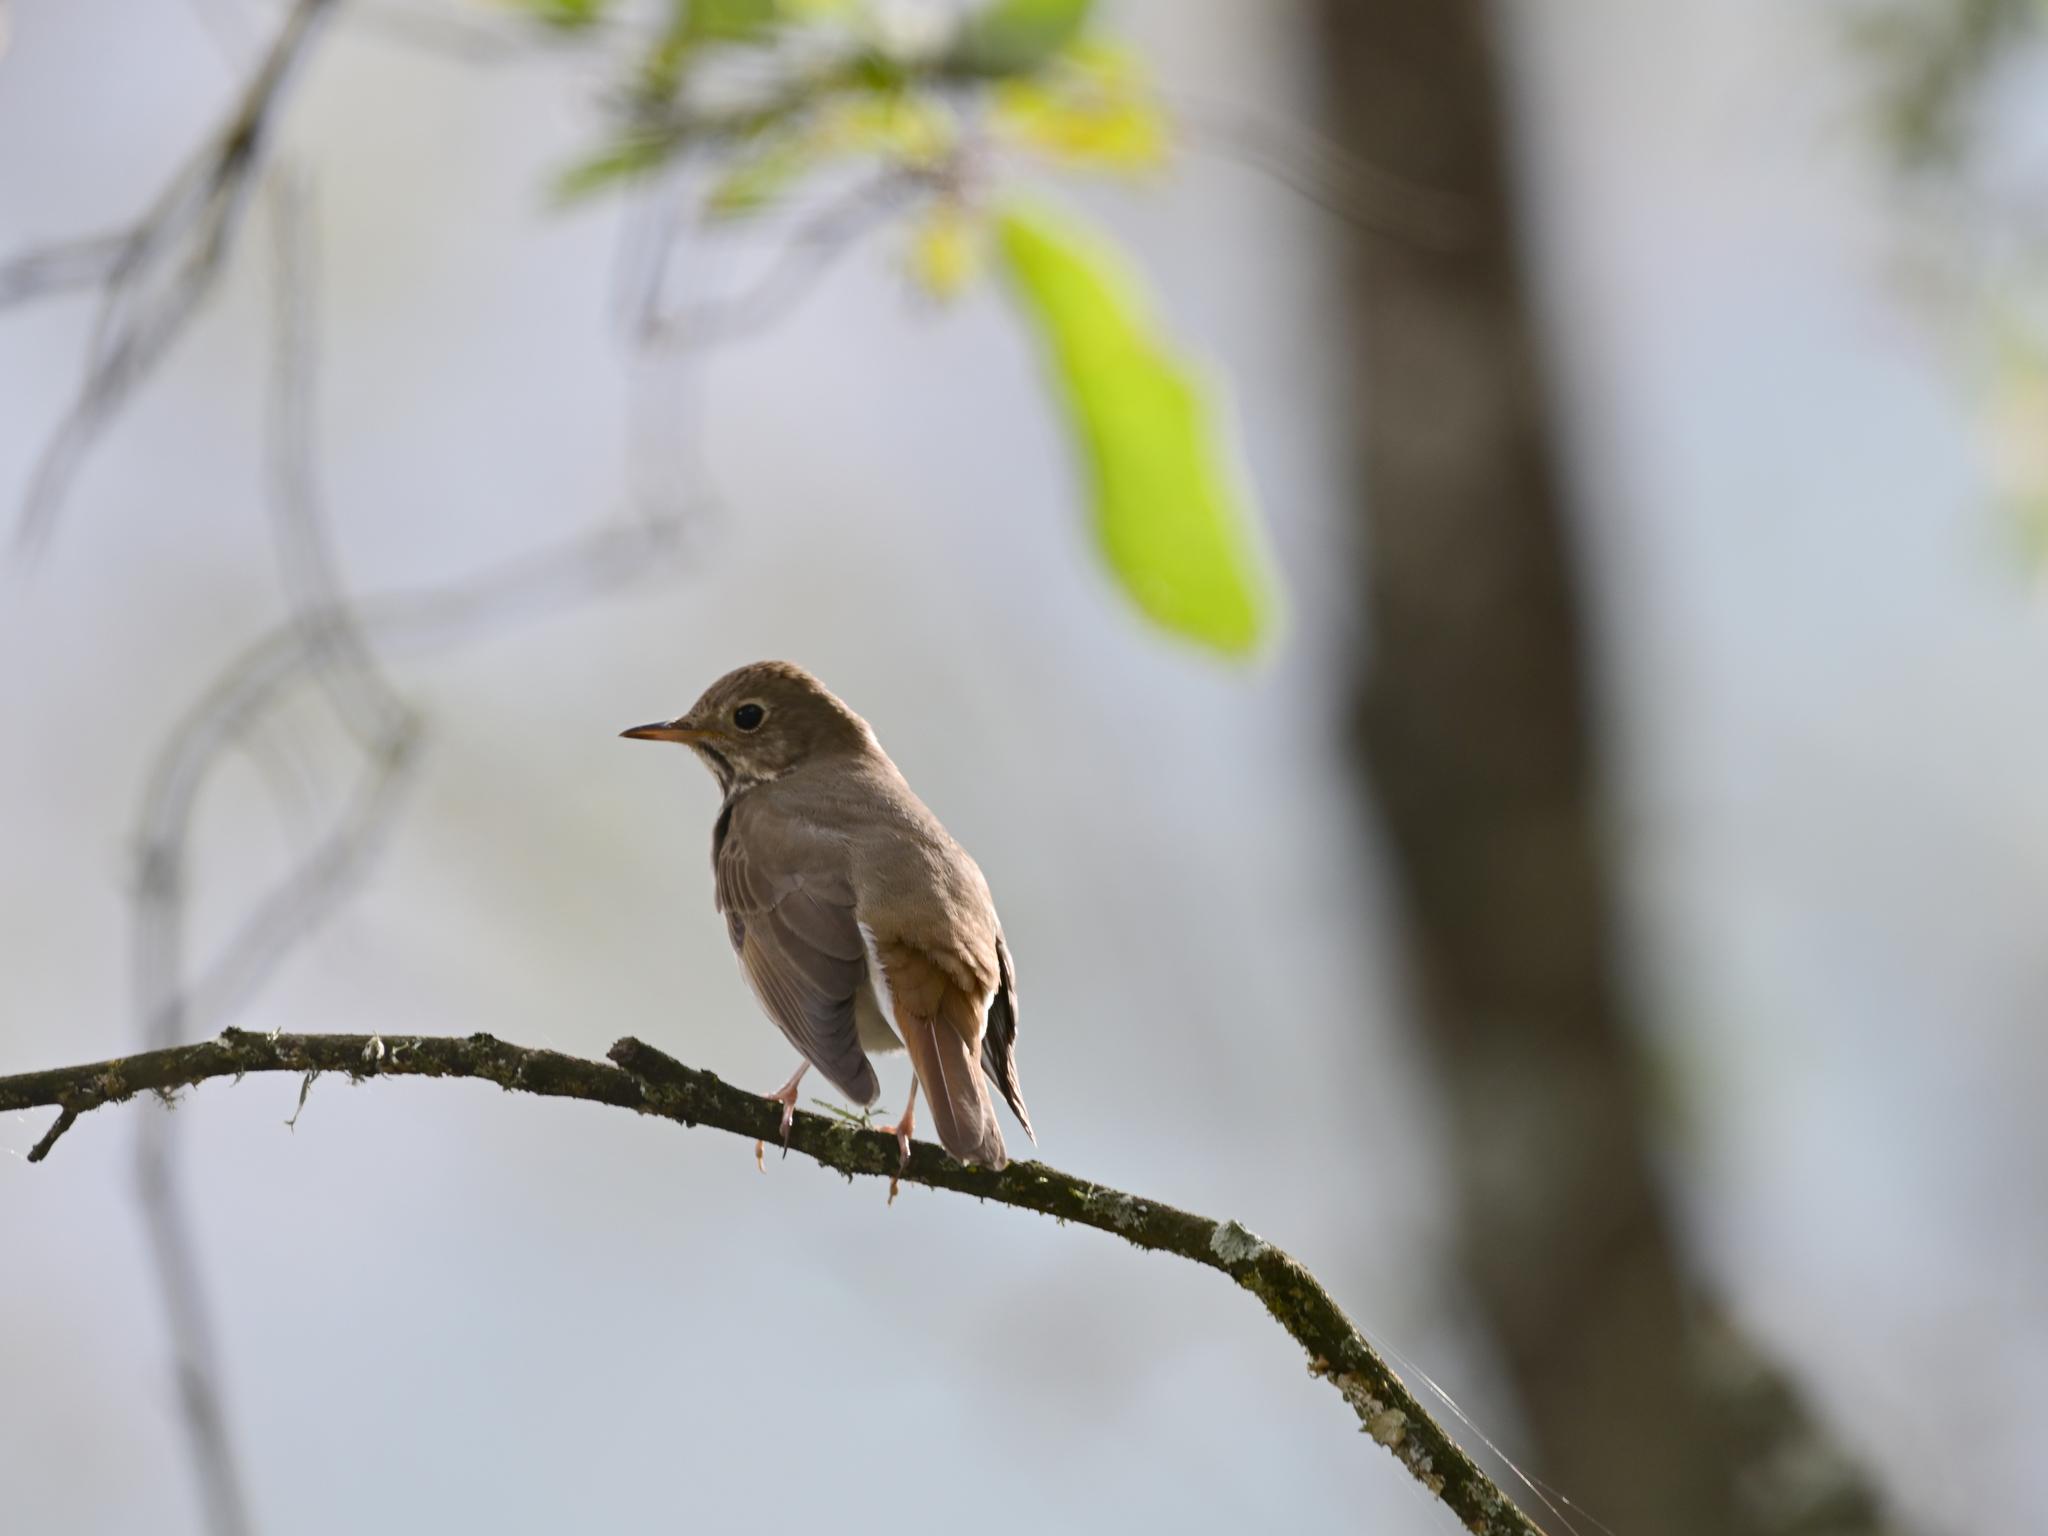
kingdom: Animalia
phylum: Chordata
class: Aves
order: Passeriformes
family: Turdidae
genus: Catharus
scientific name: Catharus guttatus
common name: Hermit thrush
